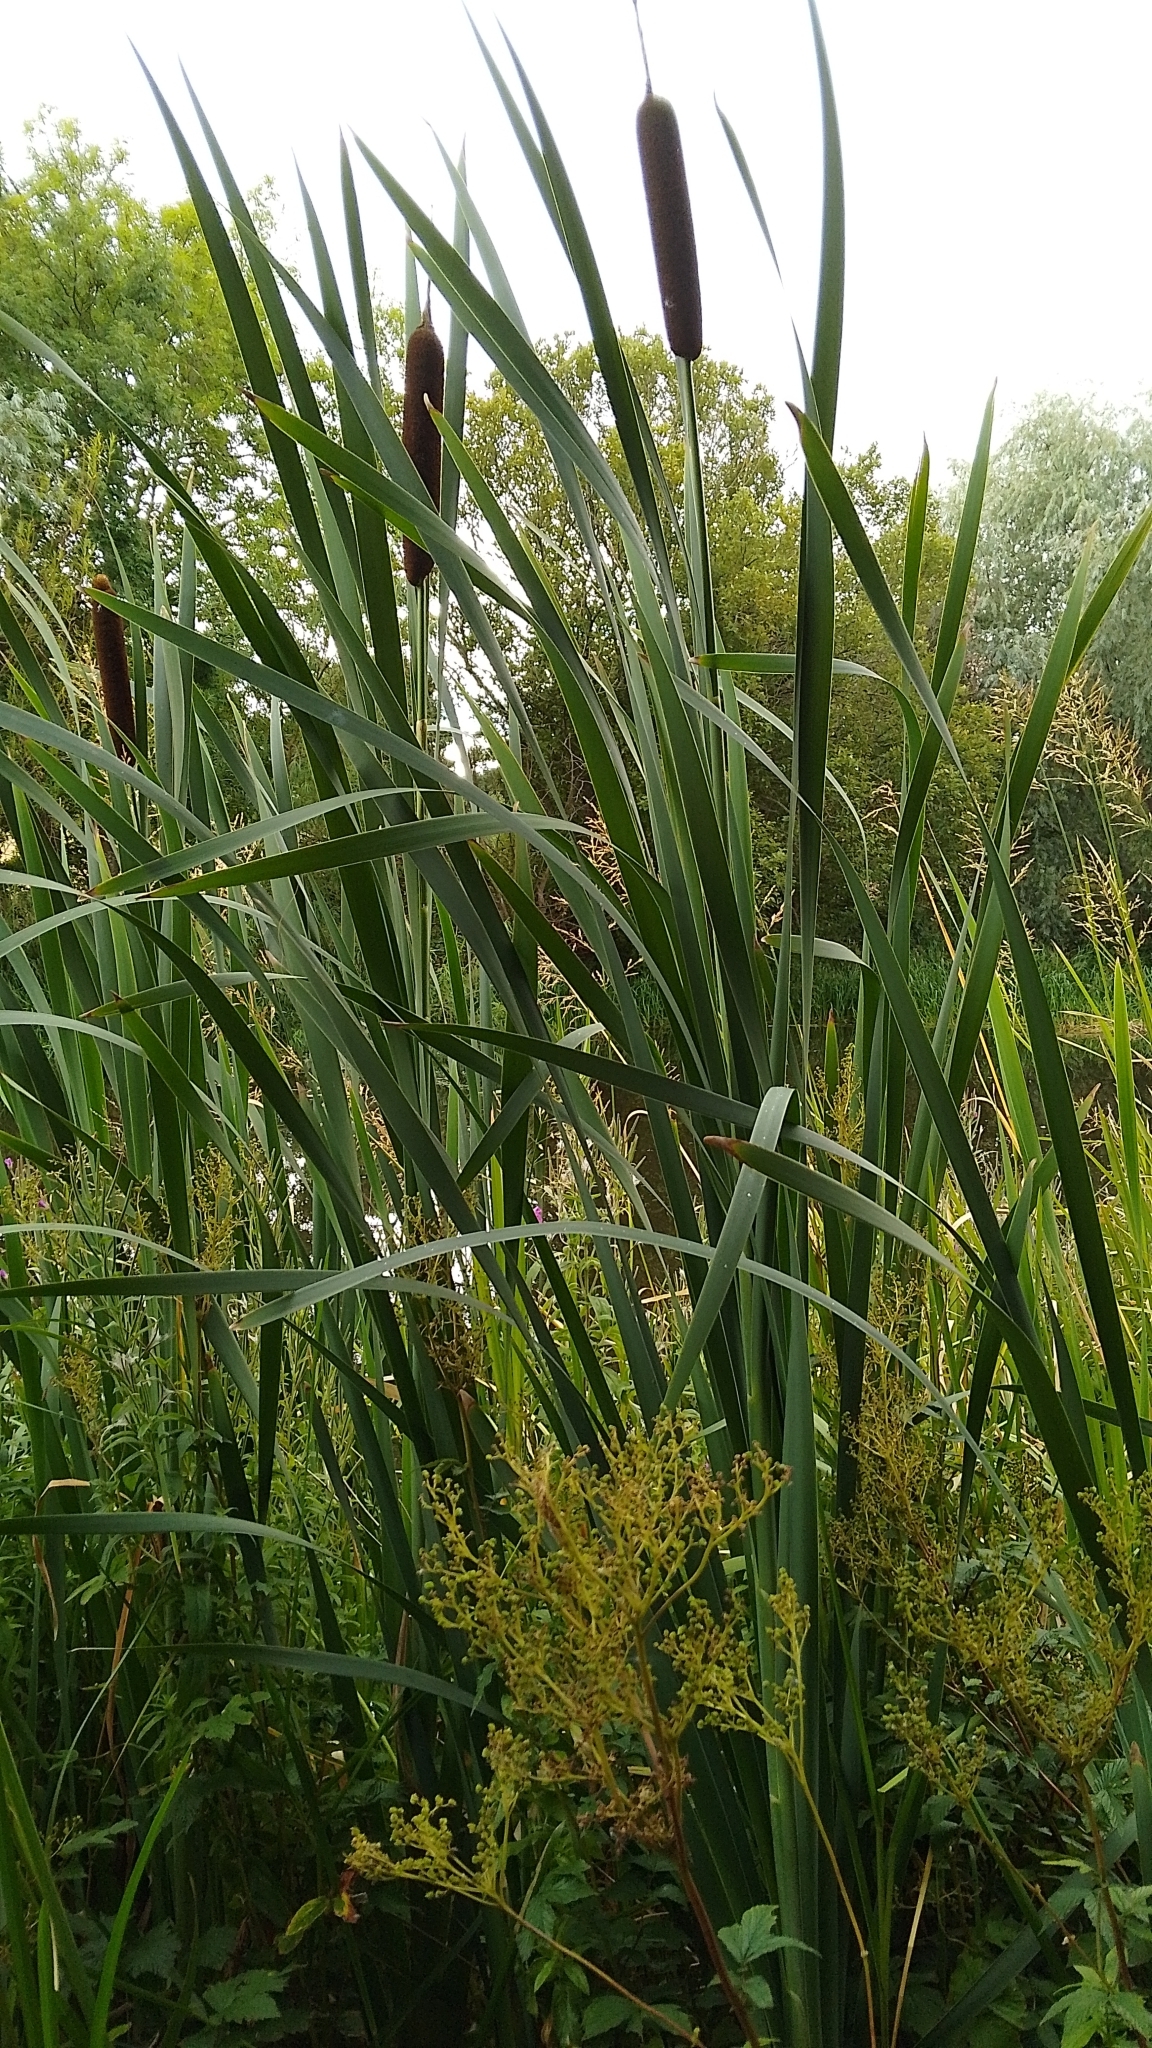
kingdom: Plantae
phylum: Tracheophyta
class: Liliopsida
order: Poales
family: Typhaceae
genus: Typha
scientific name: Typha latifolia
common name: Broadleaf cattail
